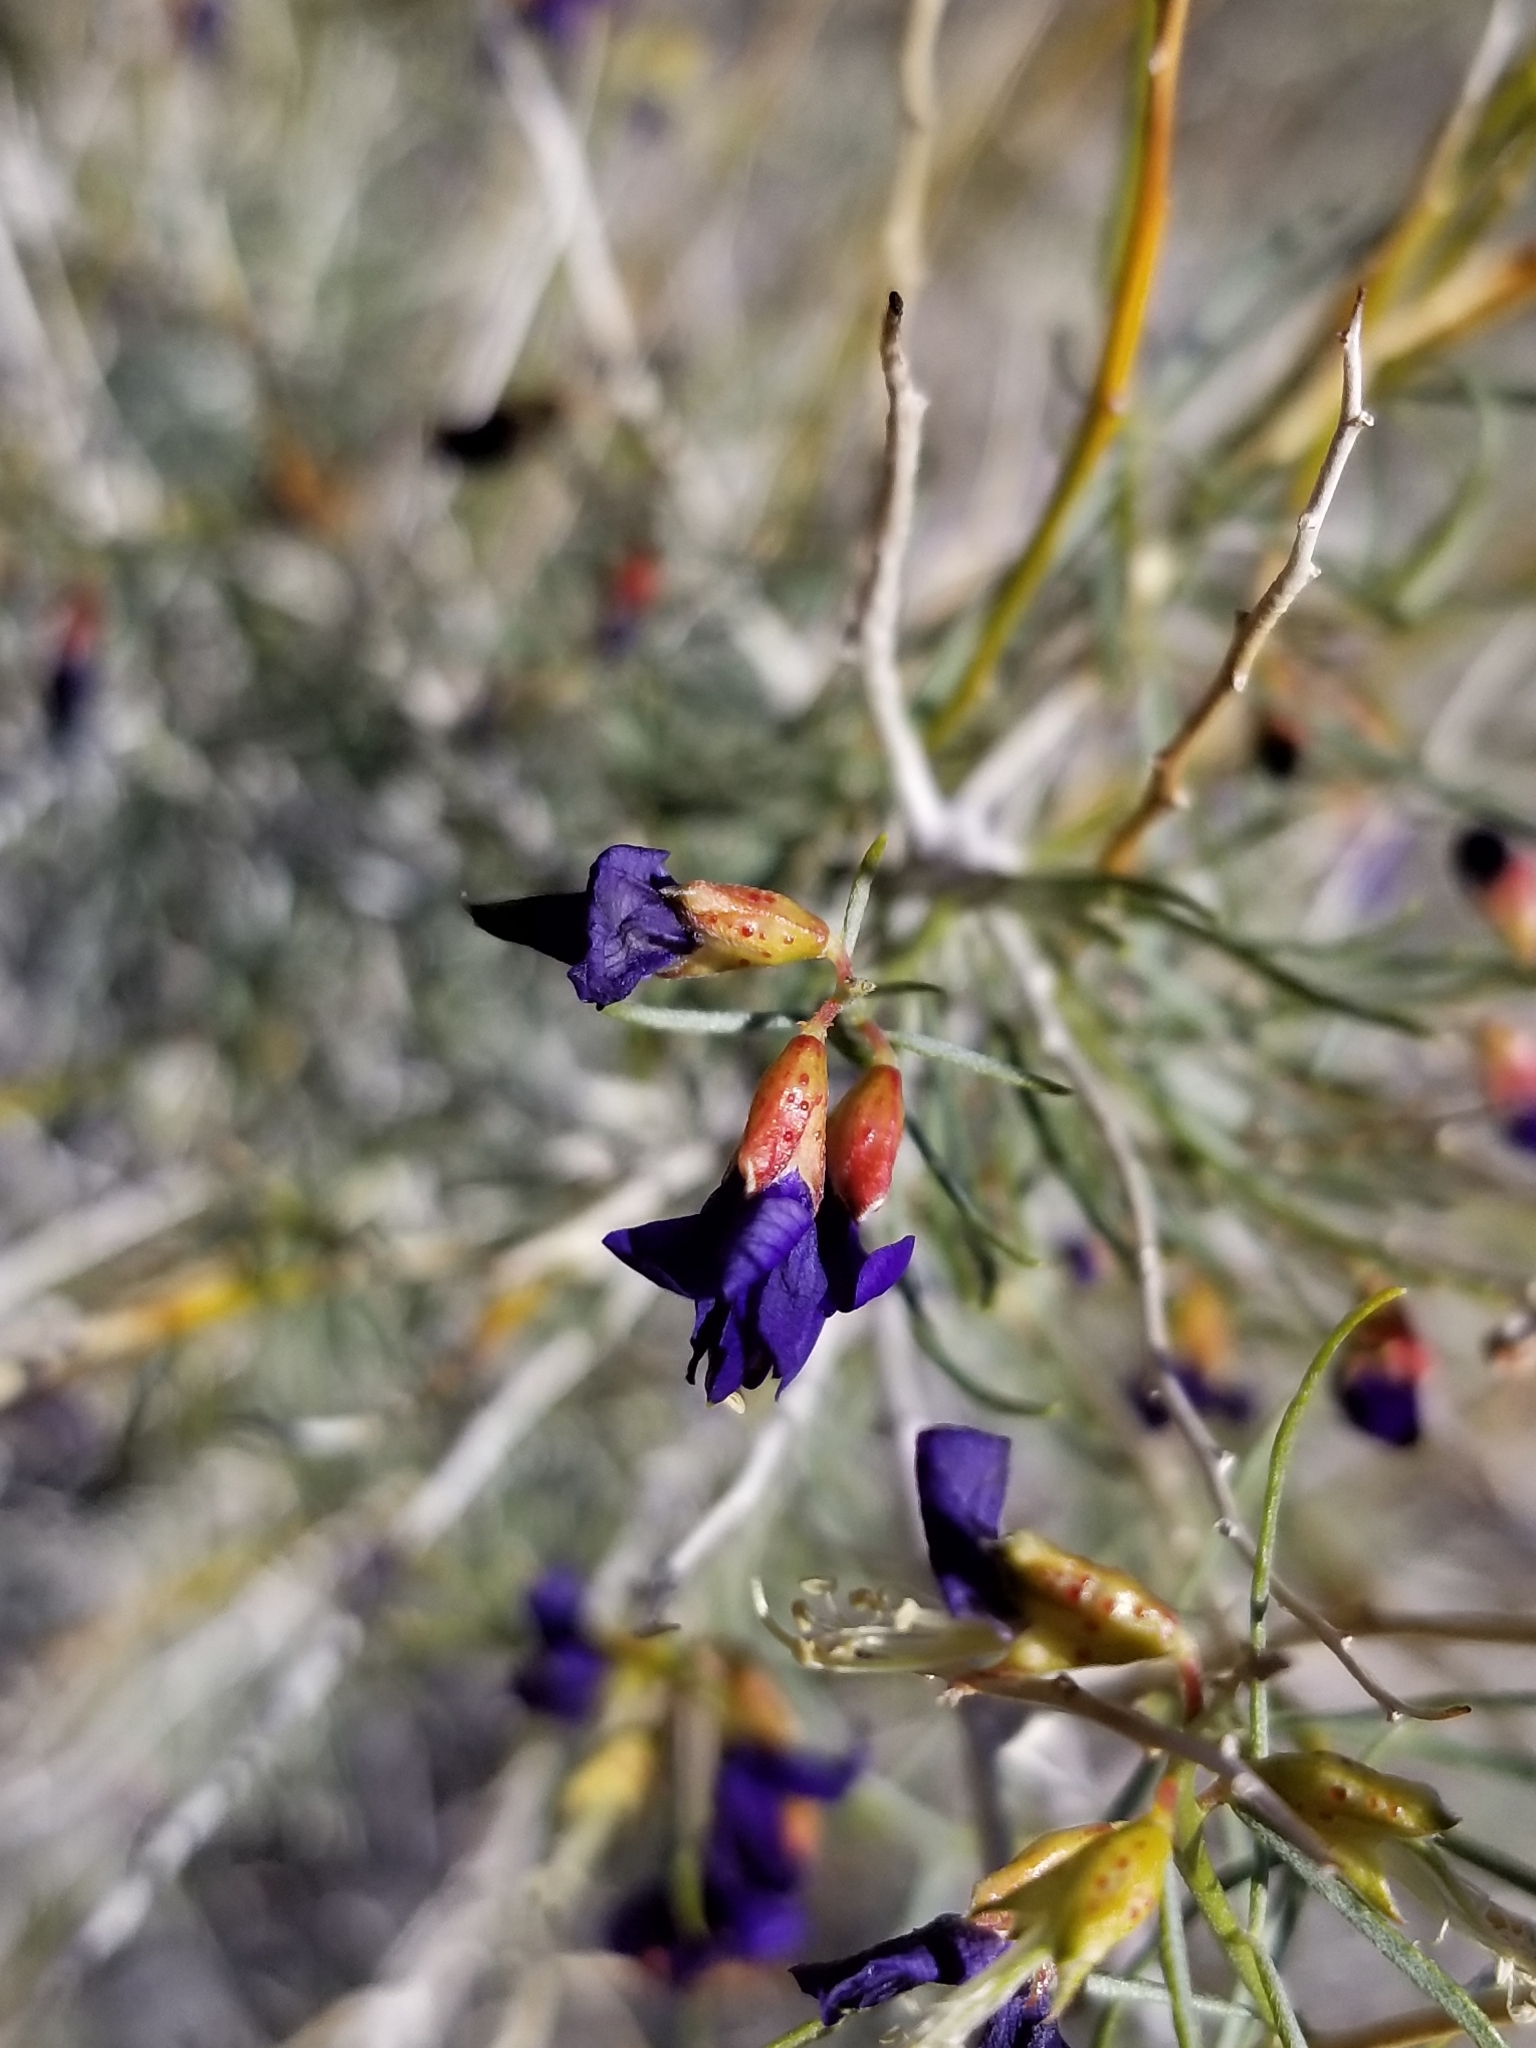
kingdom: Plantae
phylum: Tracheophyta
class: Magnoliopsida
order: Fabales
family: Fabaceae
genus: Psorothamnus
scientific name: Psorothamnus schottii
